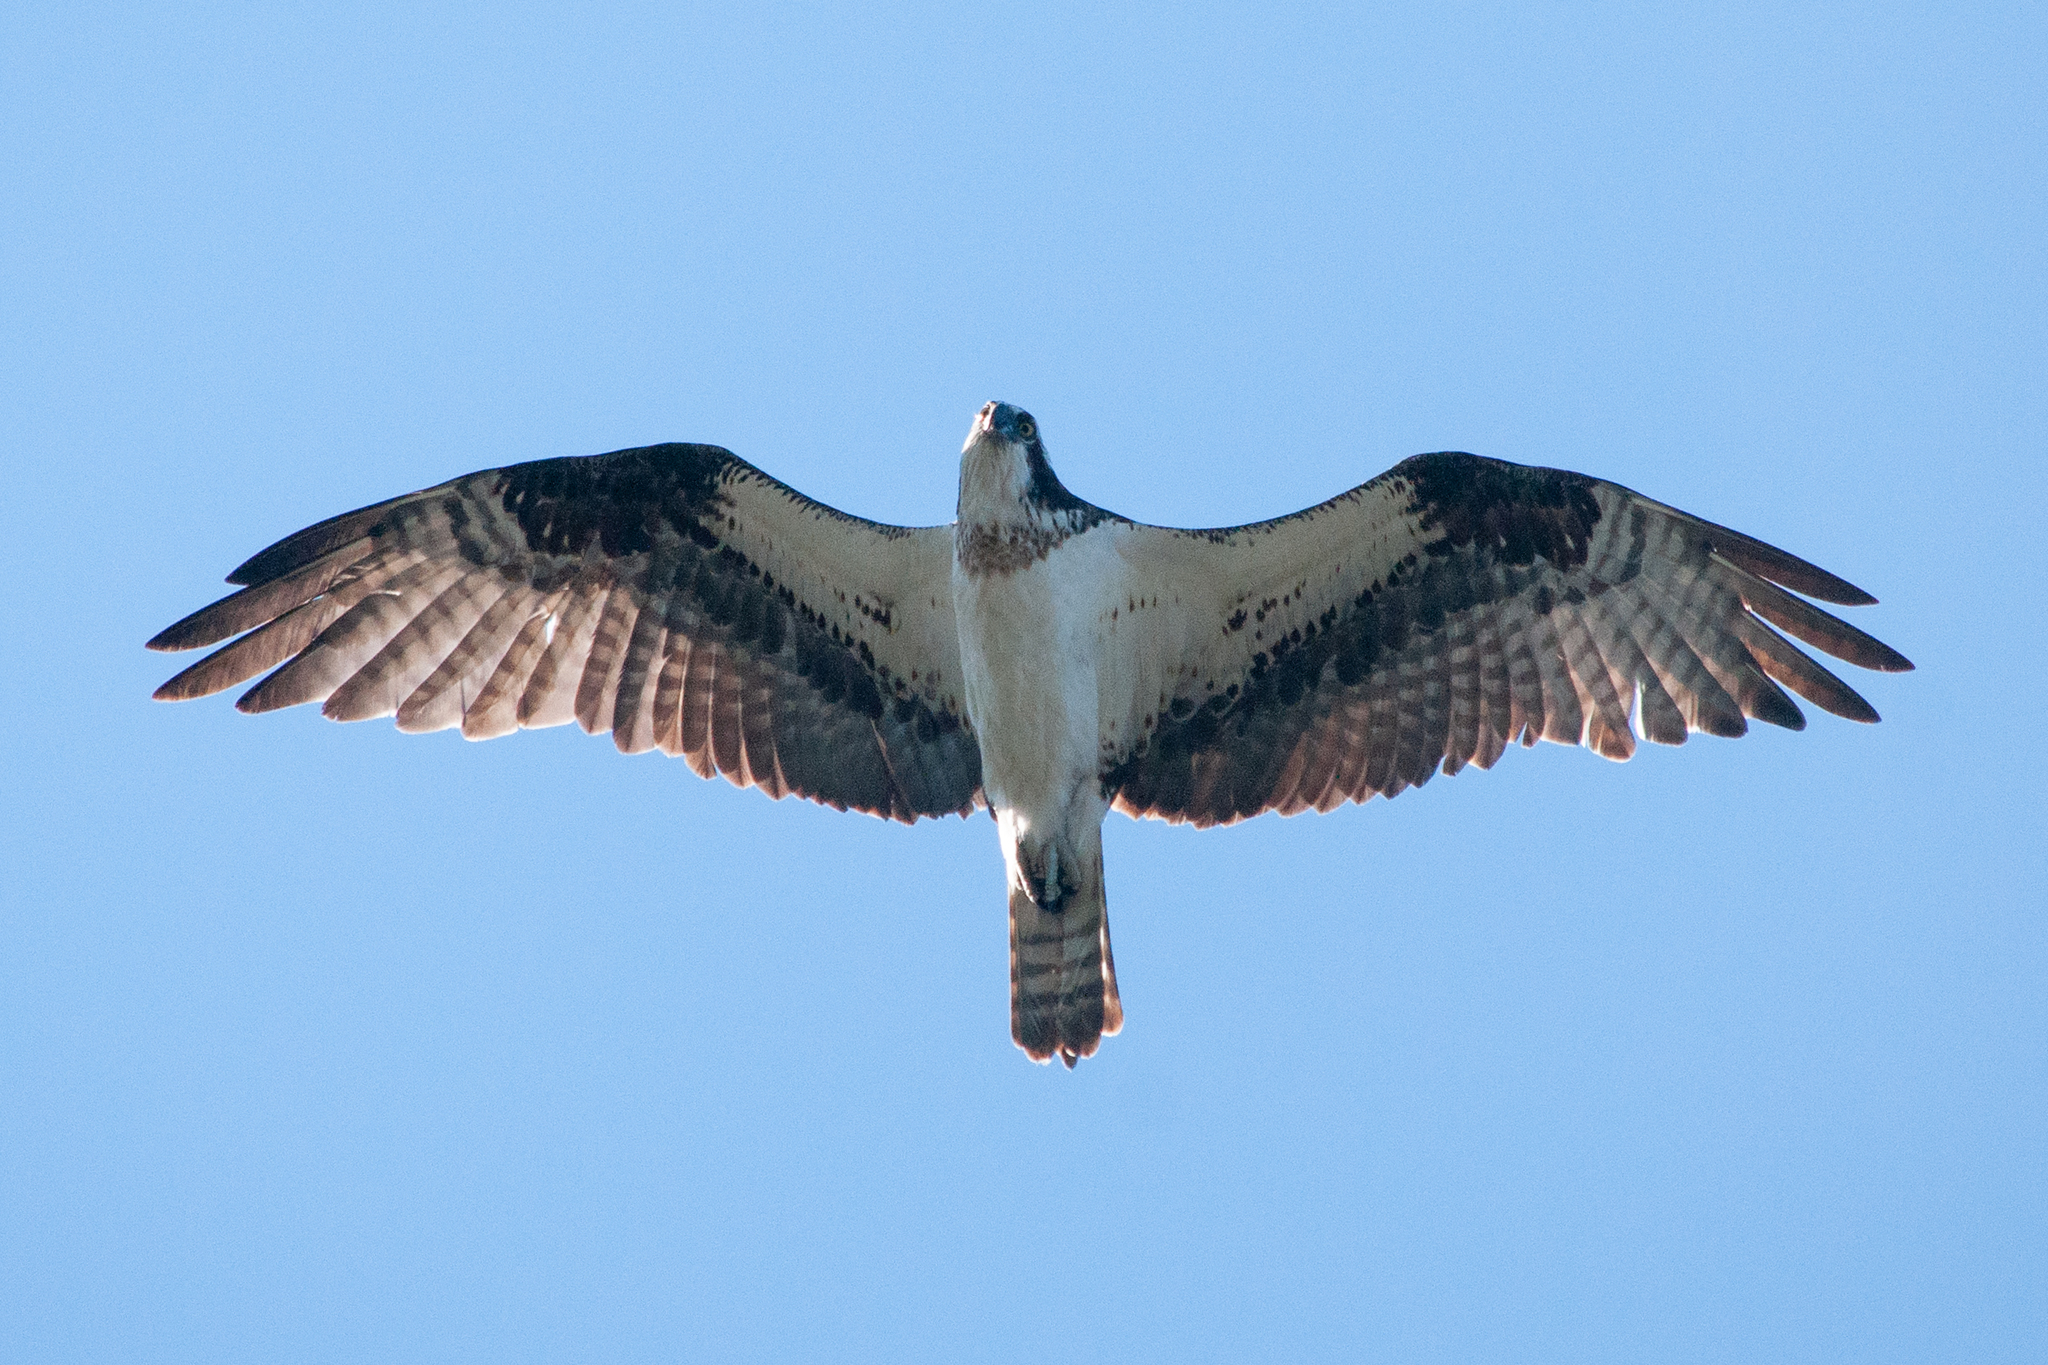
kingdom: Animalia
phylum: Chordata
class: Aves
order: Accipitriformes
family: Pandionidae
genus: Pandion
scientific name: Pandion haliaetus
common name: Osprey
